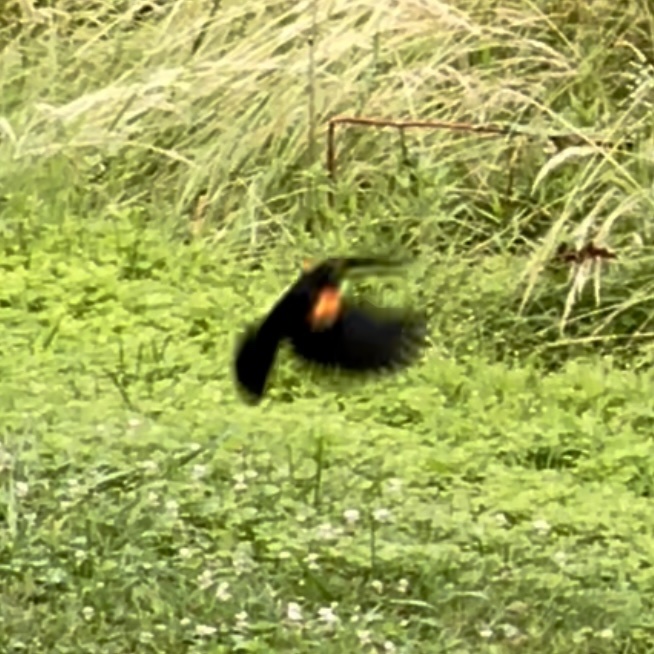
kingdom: Animalia
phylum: Chordata
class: Aves
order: Passeriformes
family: Icteridae
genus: Agelaius
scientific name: Agelaius phoeniceus
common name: Red-winged blackbird
